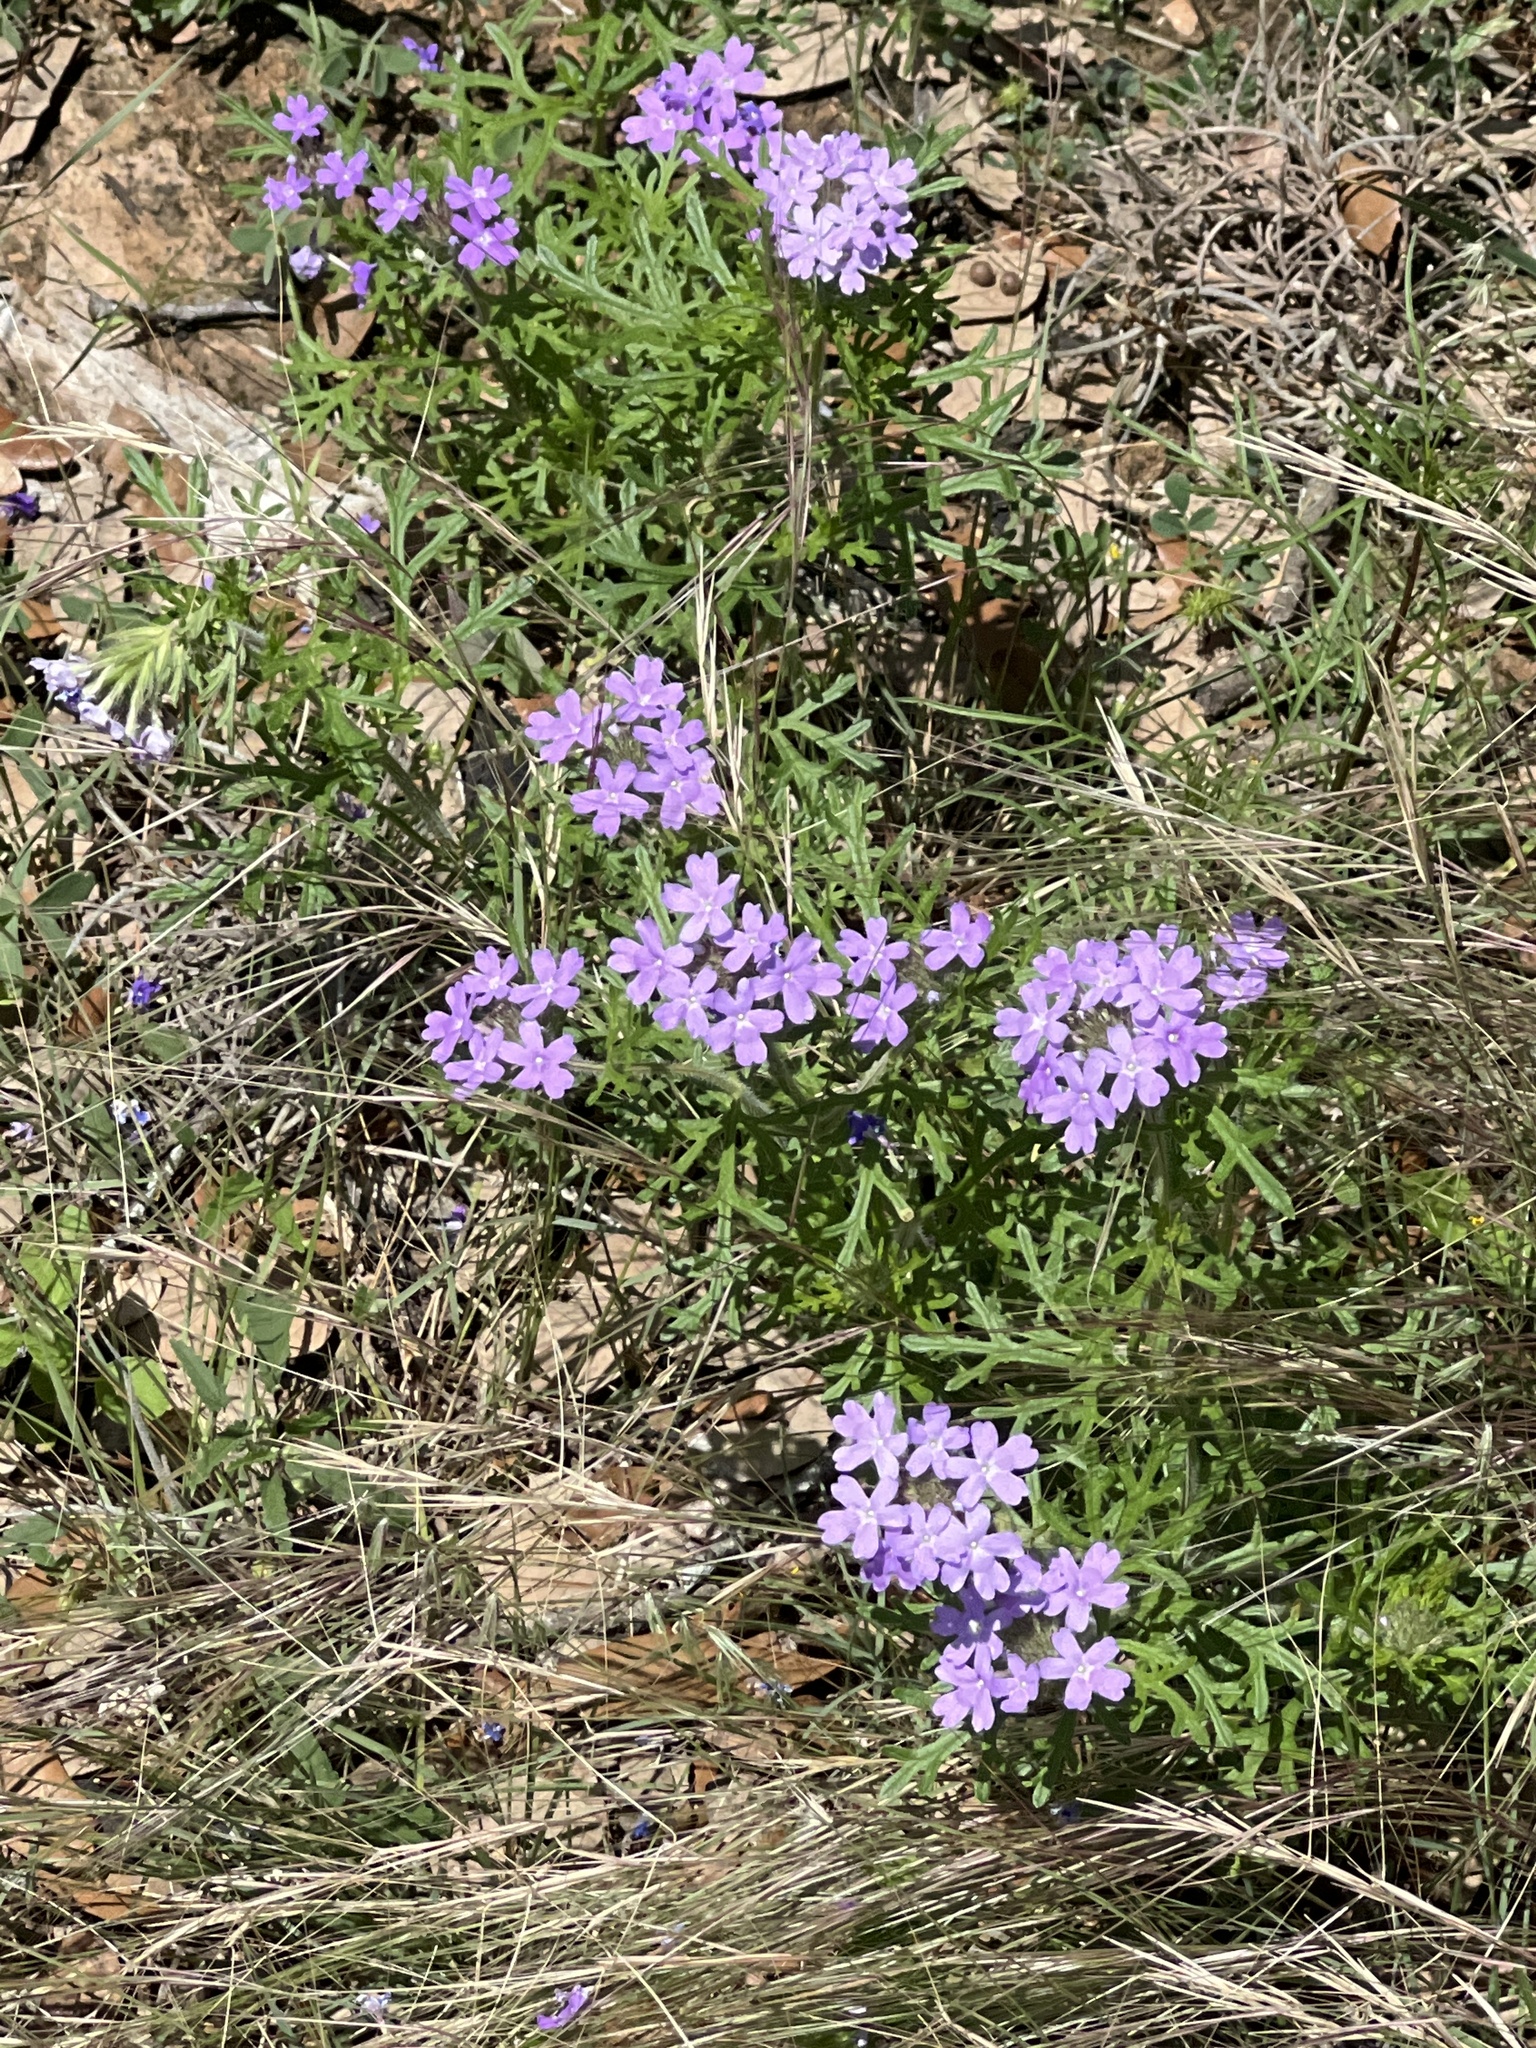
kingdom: Plantae
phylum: Tracheophyta
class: Magnoliopsida
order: Lamiales
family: Verbenaceae
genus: Verbena
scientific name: Verbena bipinnatifida
